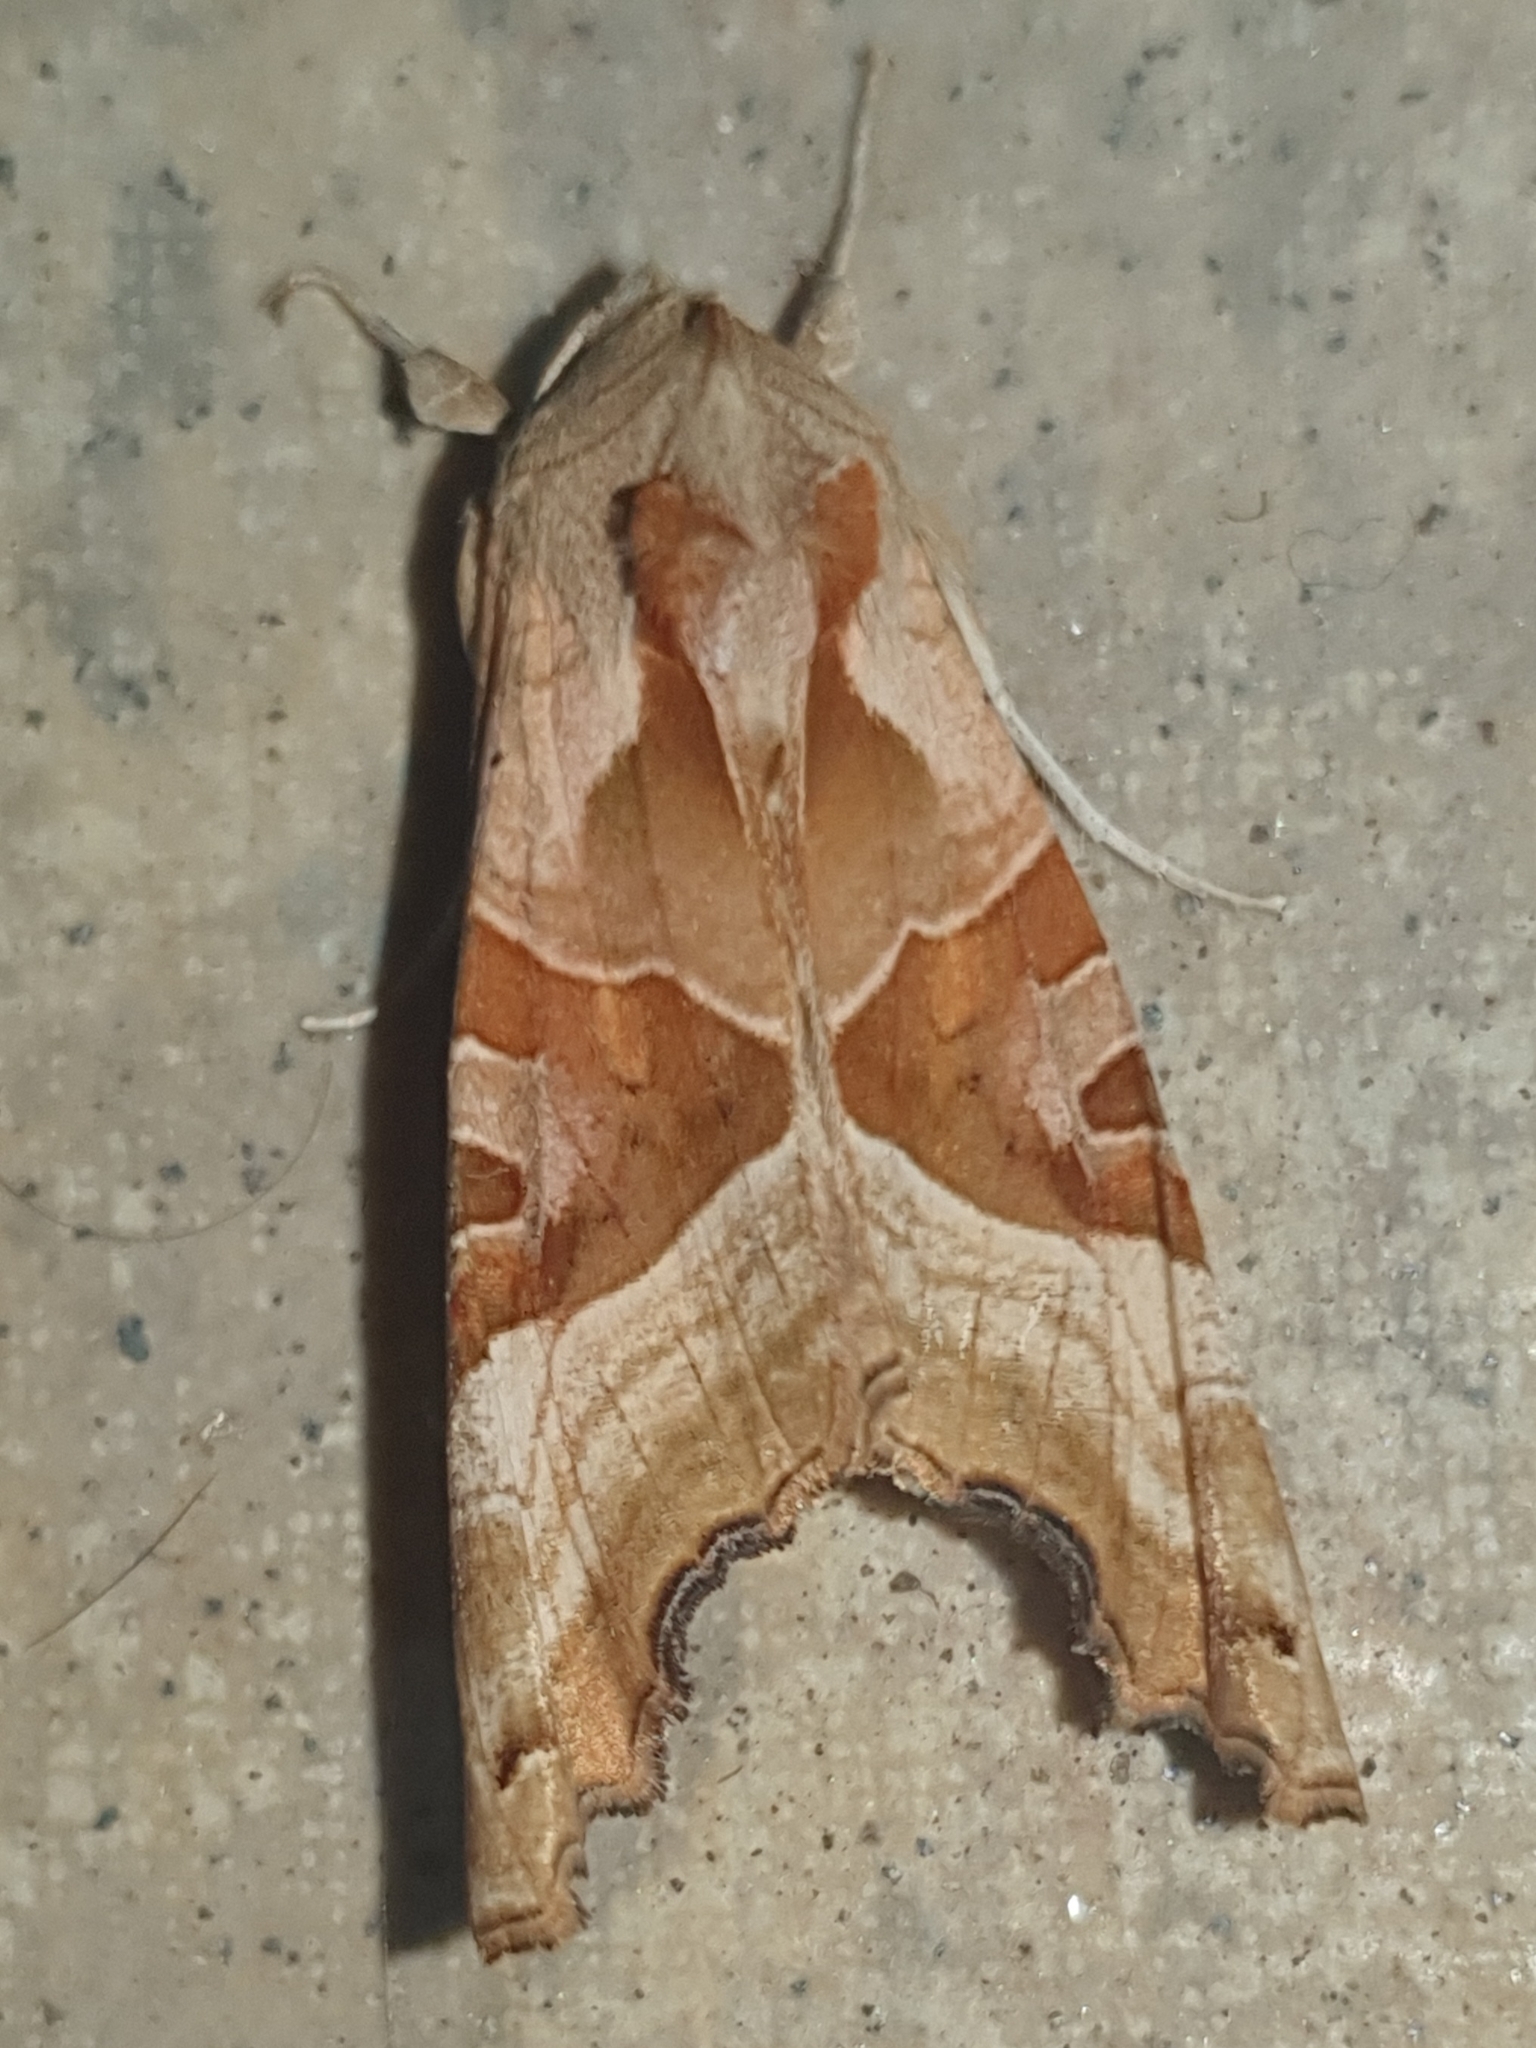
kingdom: Animalia
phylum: Arthropoda
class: Insecta
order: Lepidoptera
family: Noctuidae
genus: Phlogophora
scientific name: Phlogophora meticulosa
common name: Angle shades
